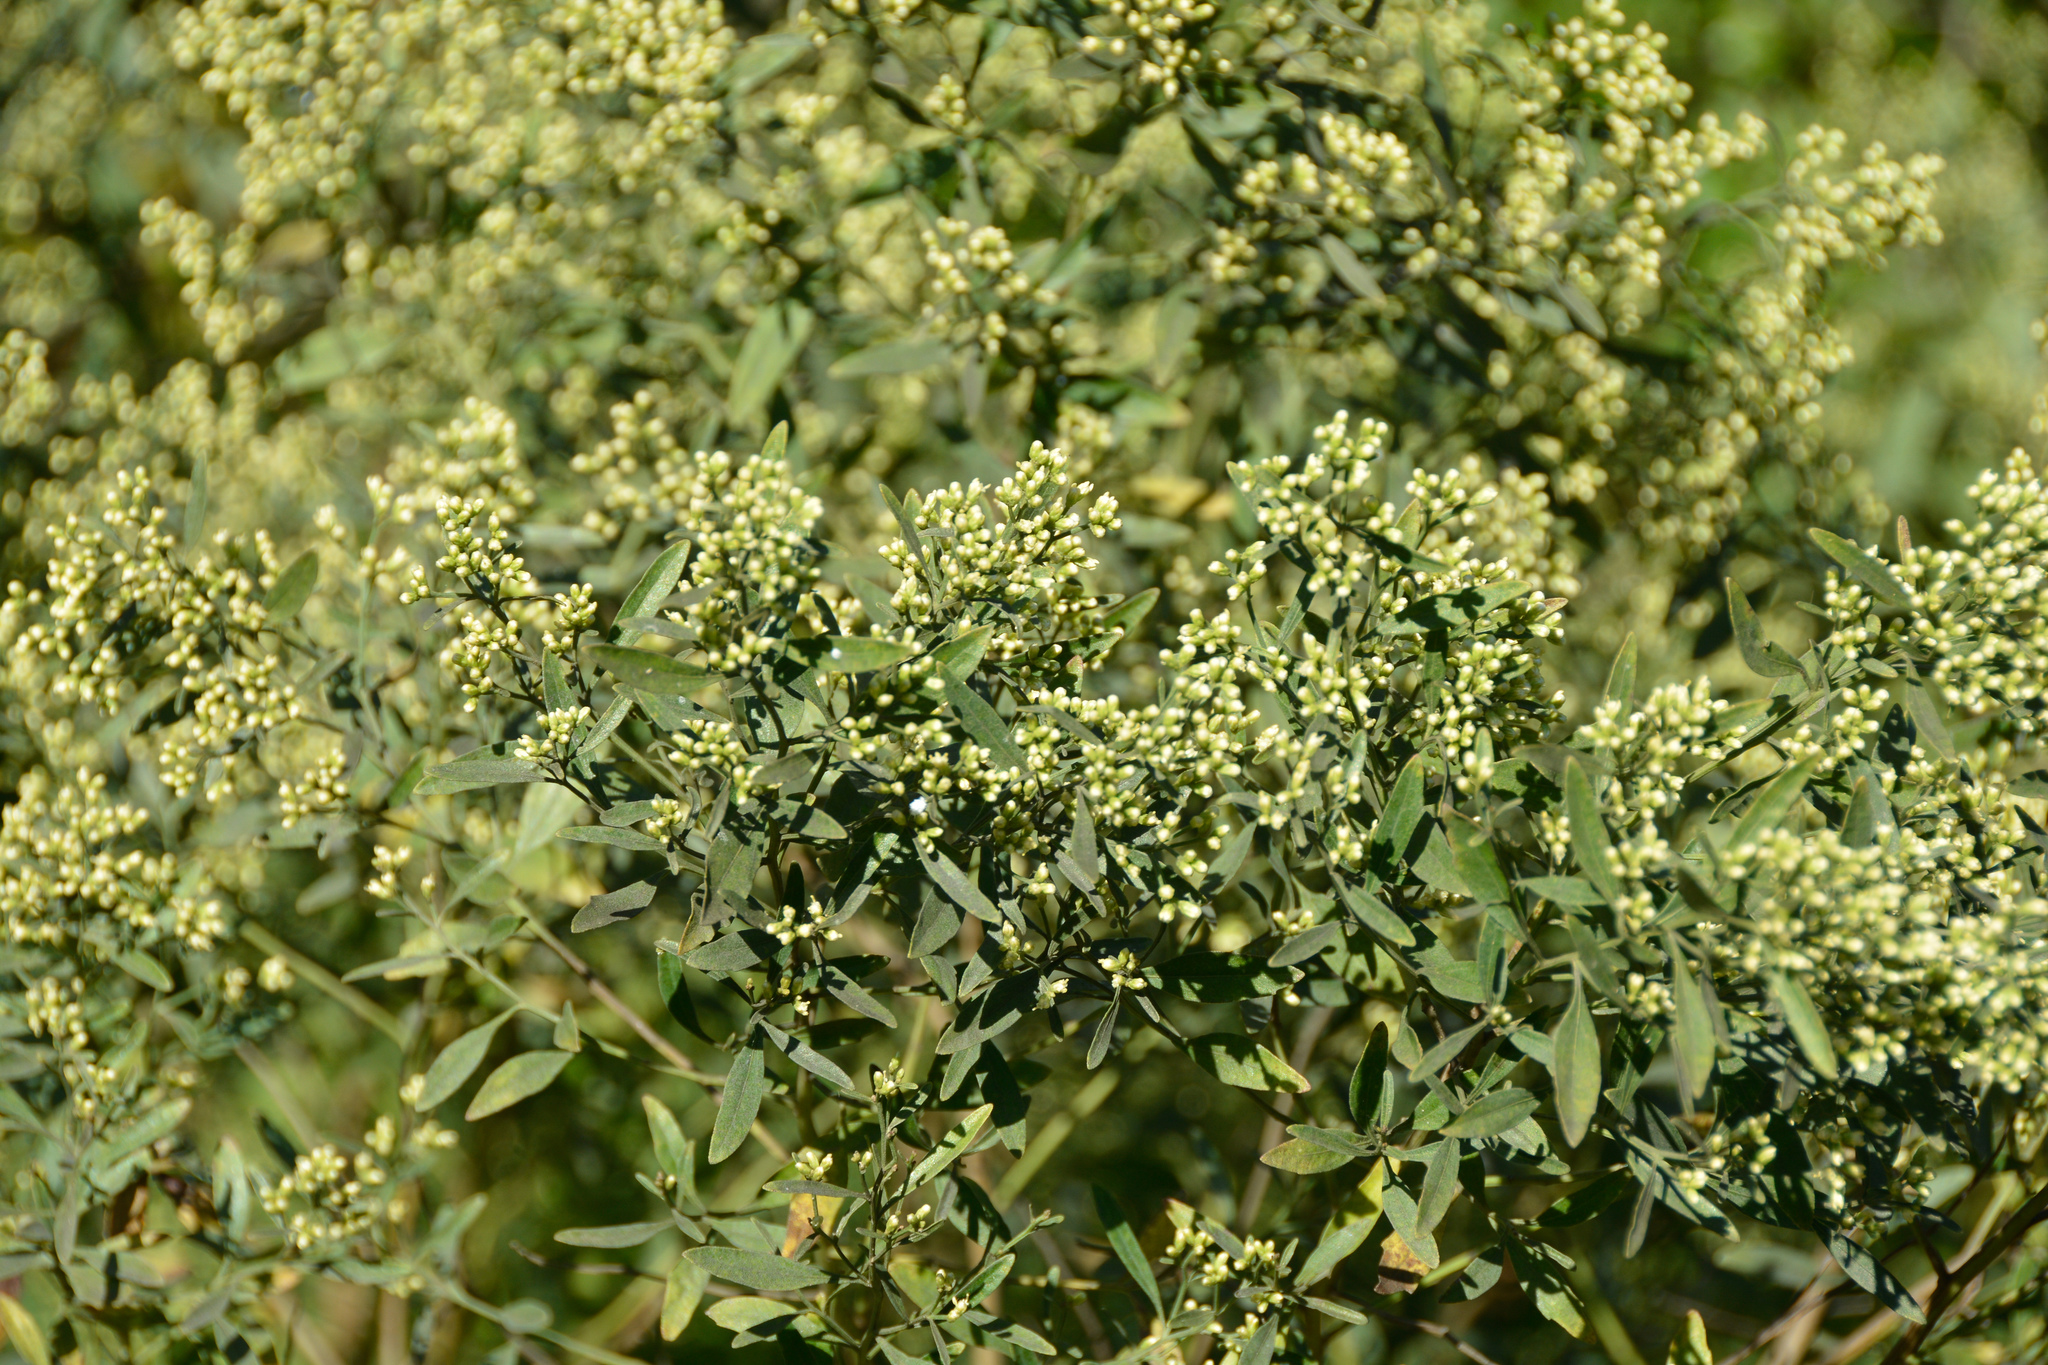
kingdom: Plantae
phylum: Tracheophyta
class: Magnoliopsida
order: Asterales
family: Asteraceae
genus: Baccharis
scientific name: Baccharis halimifolia
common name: Eastern baccharis
